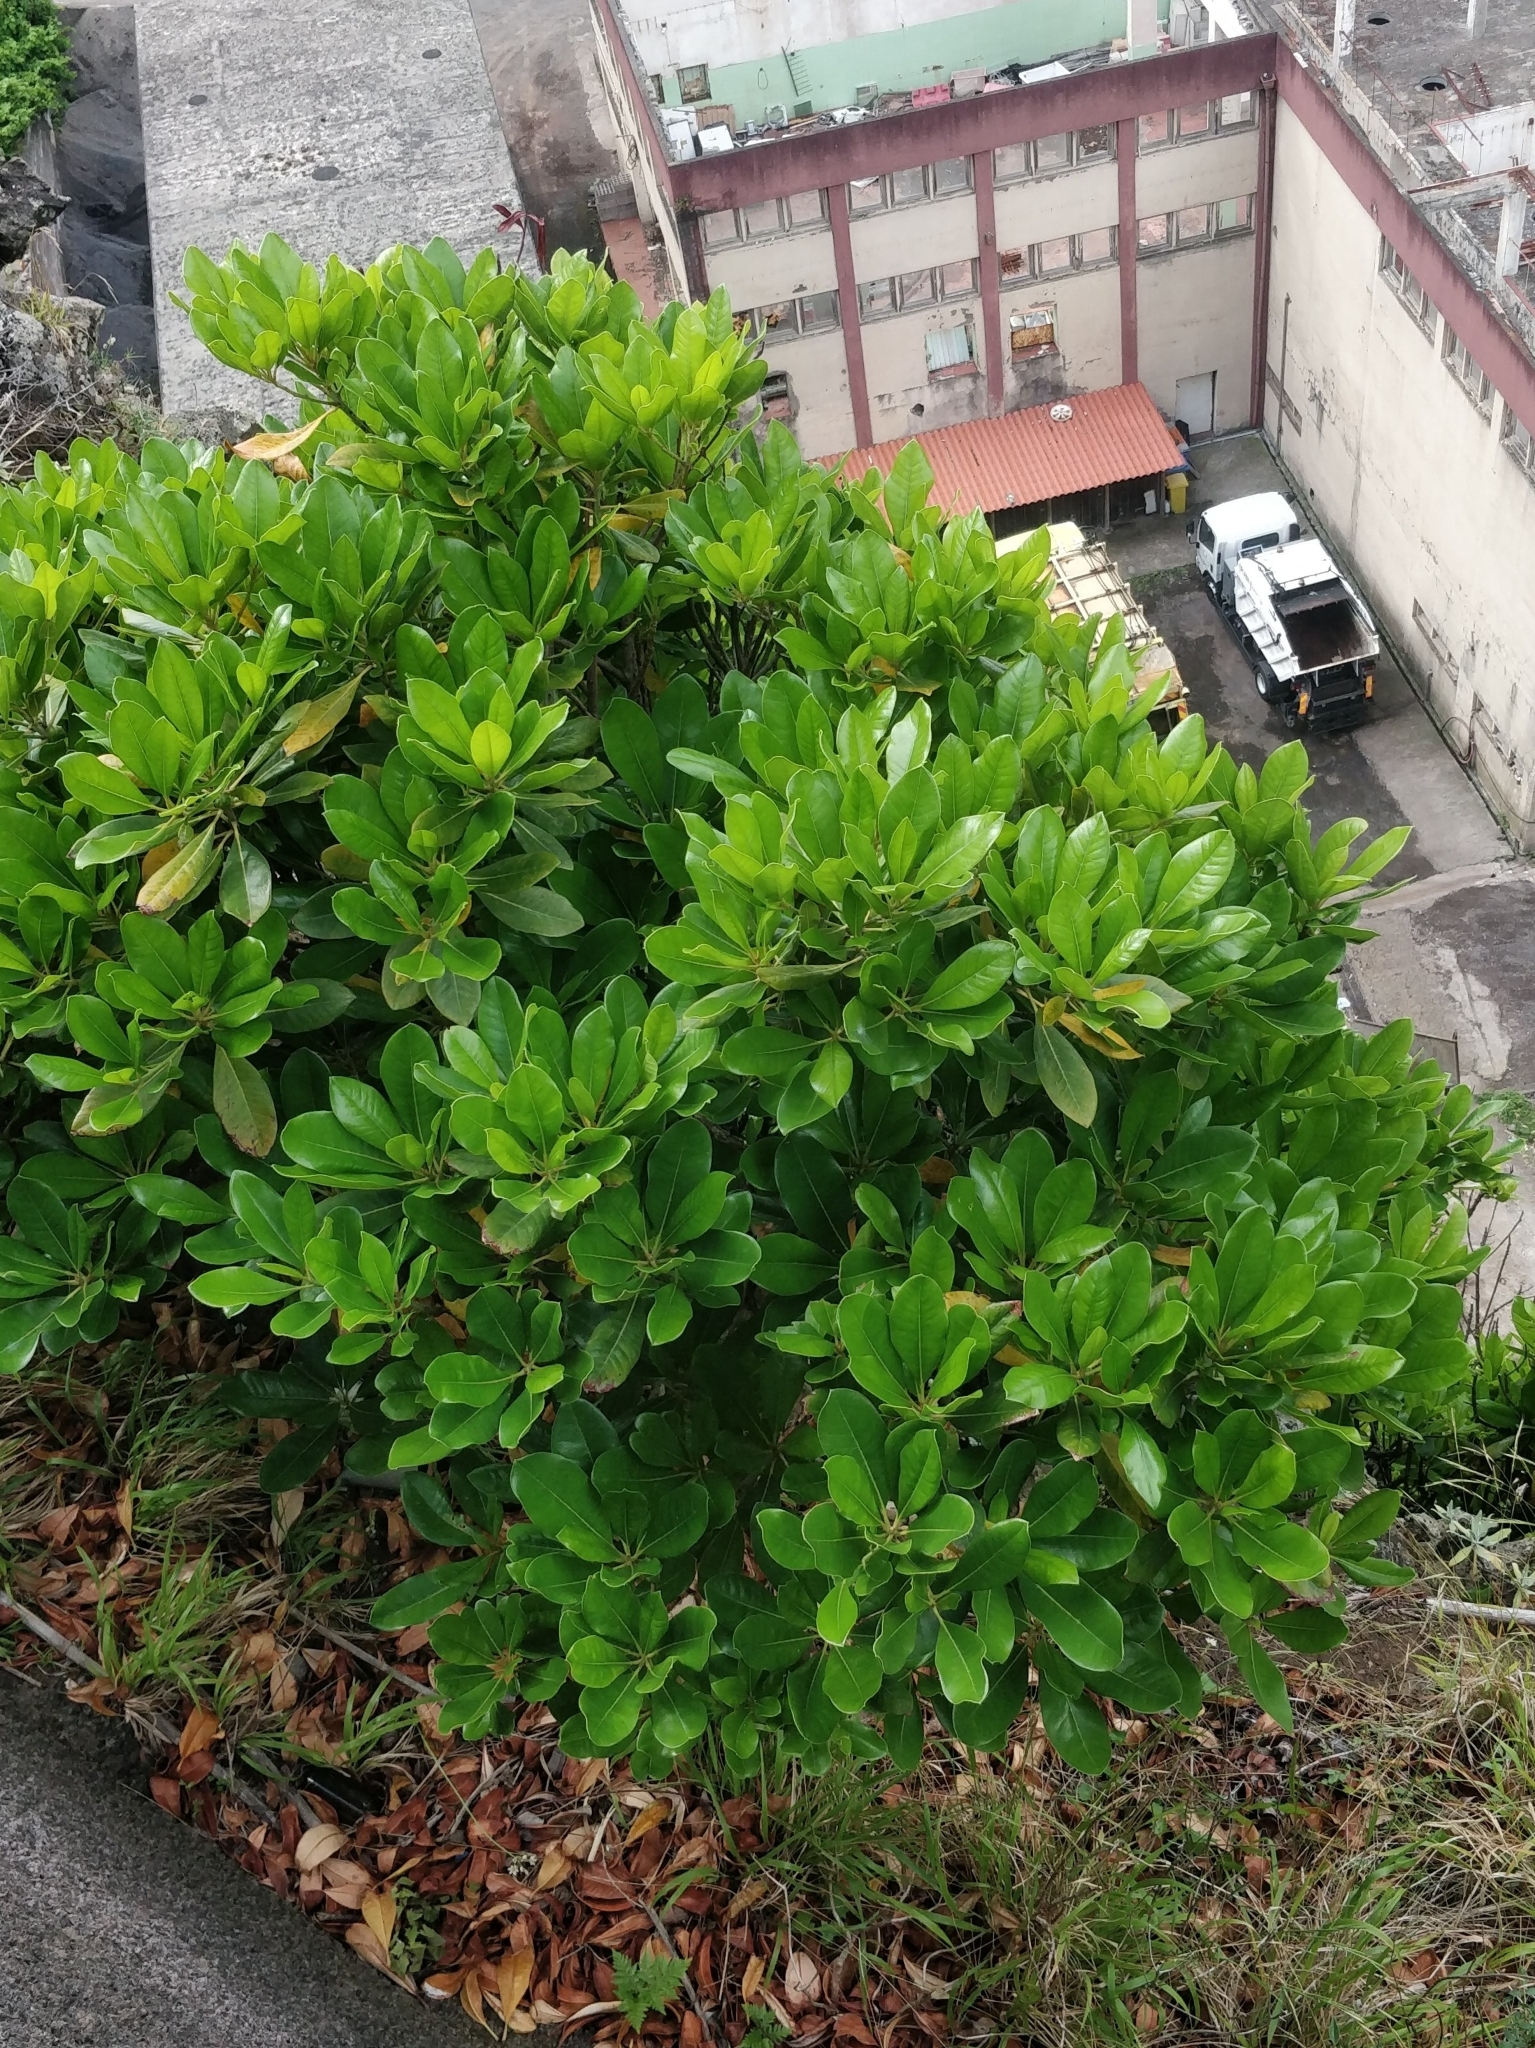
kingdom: Plantae
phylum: Tracheophyta
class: Magnoliopsida
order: Ericales
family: Sapotaceae
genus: Sideroxylon
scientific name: Sideroxylon mirmulans
